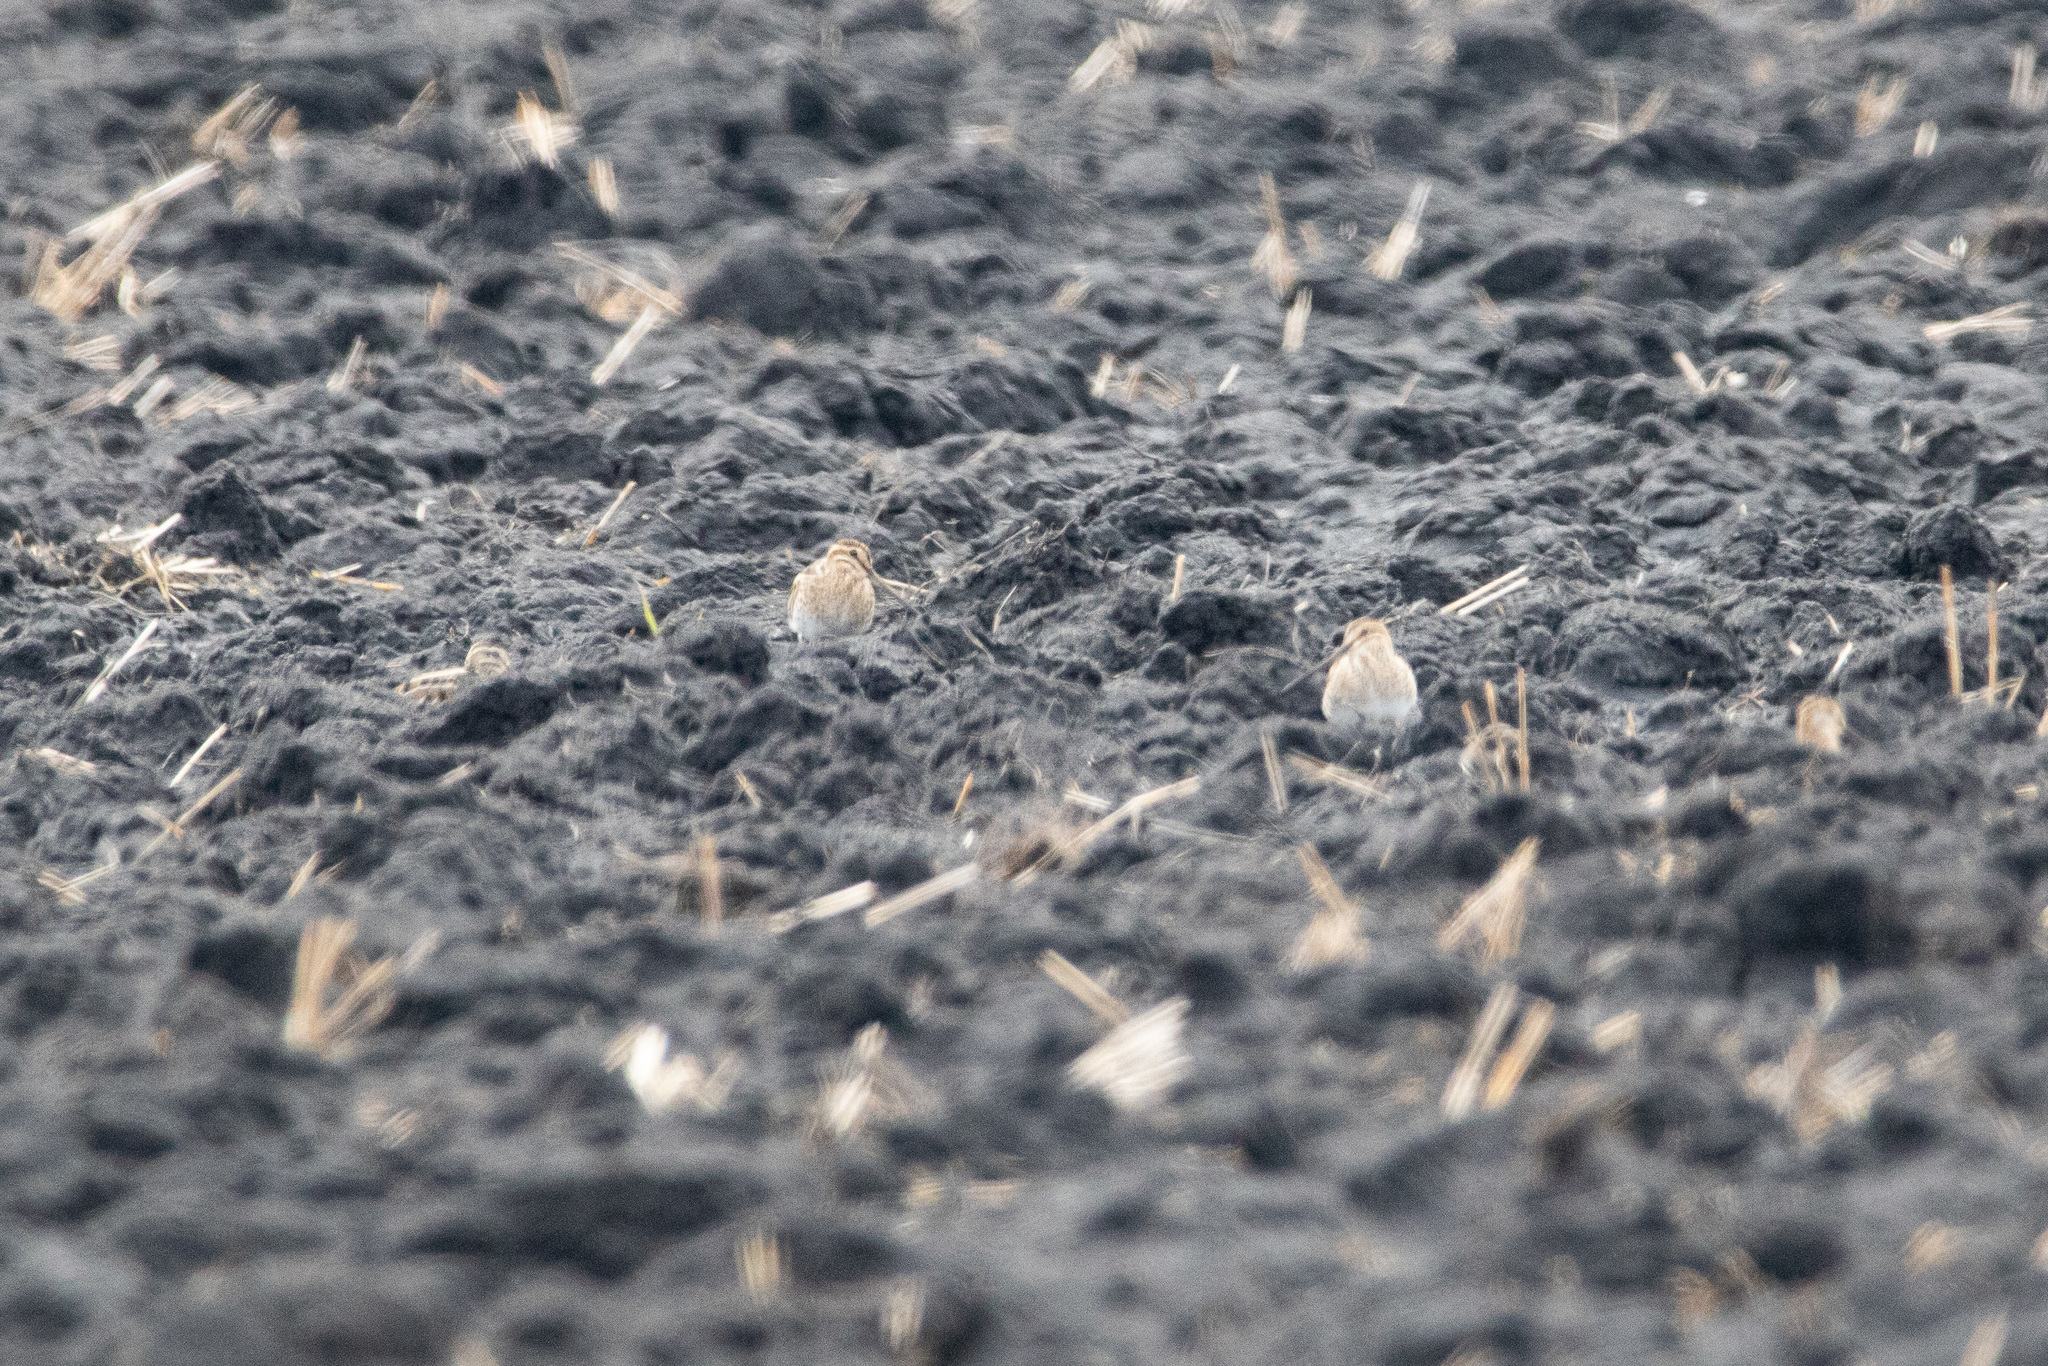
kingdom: Animalia
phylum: Chordata
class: Aves
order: Charadriiformes
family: Scolopacidae
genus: Gallinago
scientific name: Gallinago gallinago
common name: Common snipe
